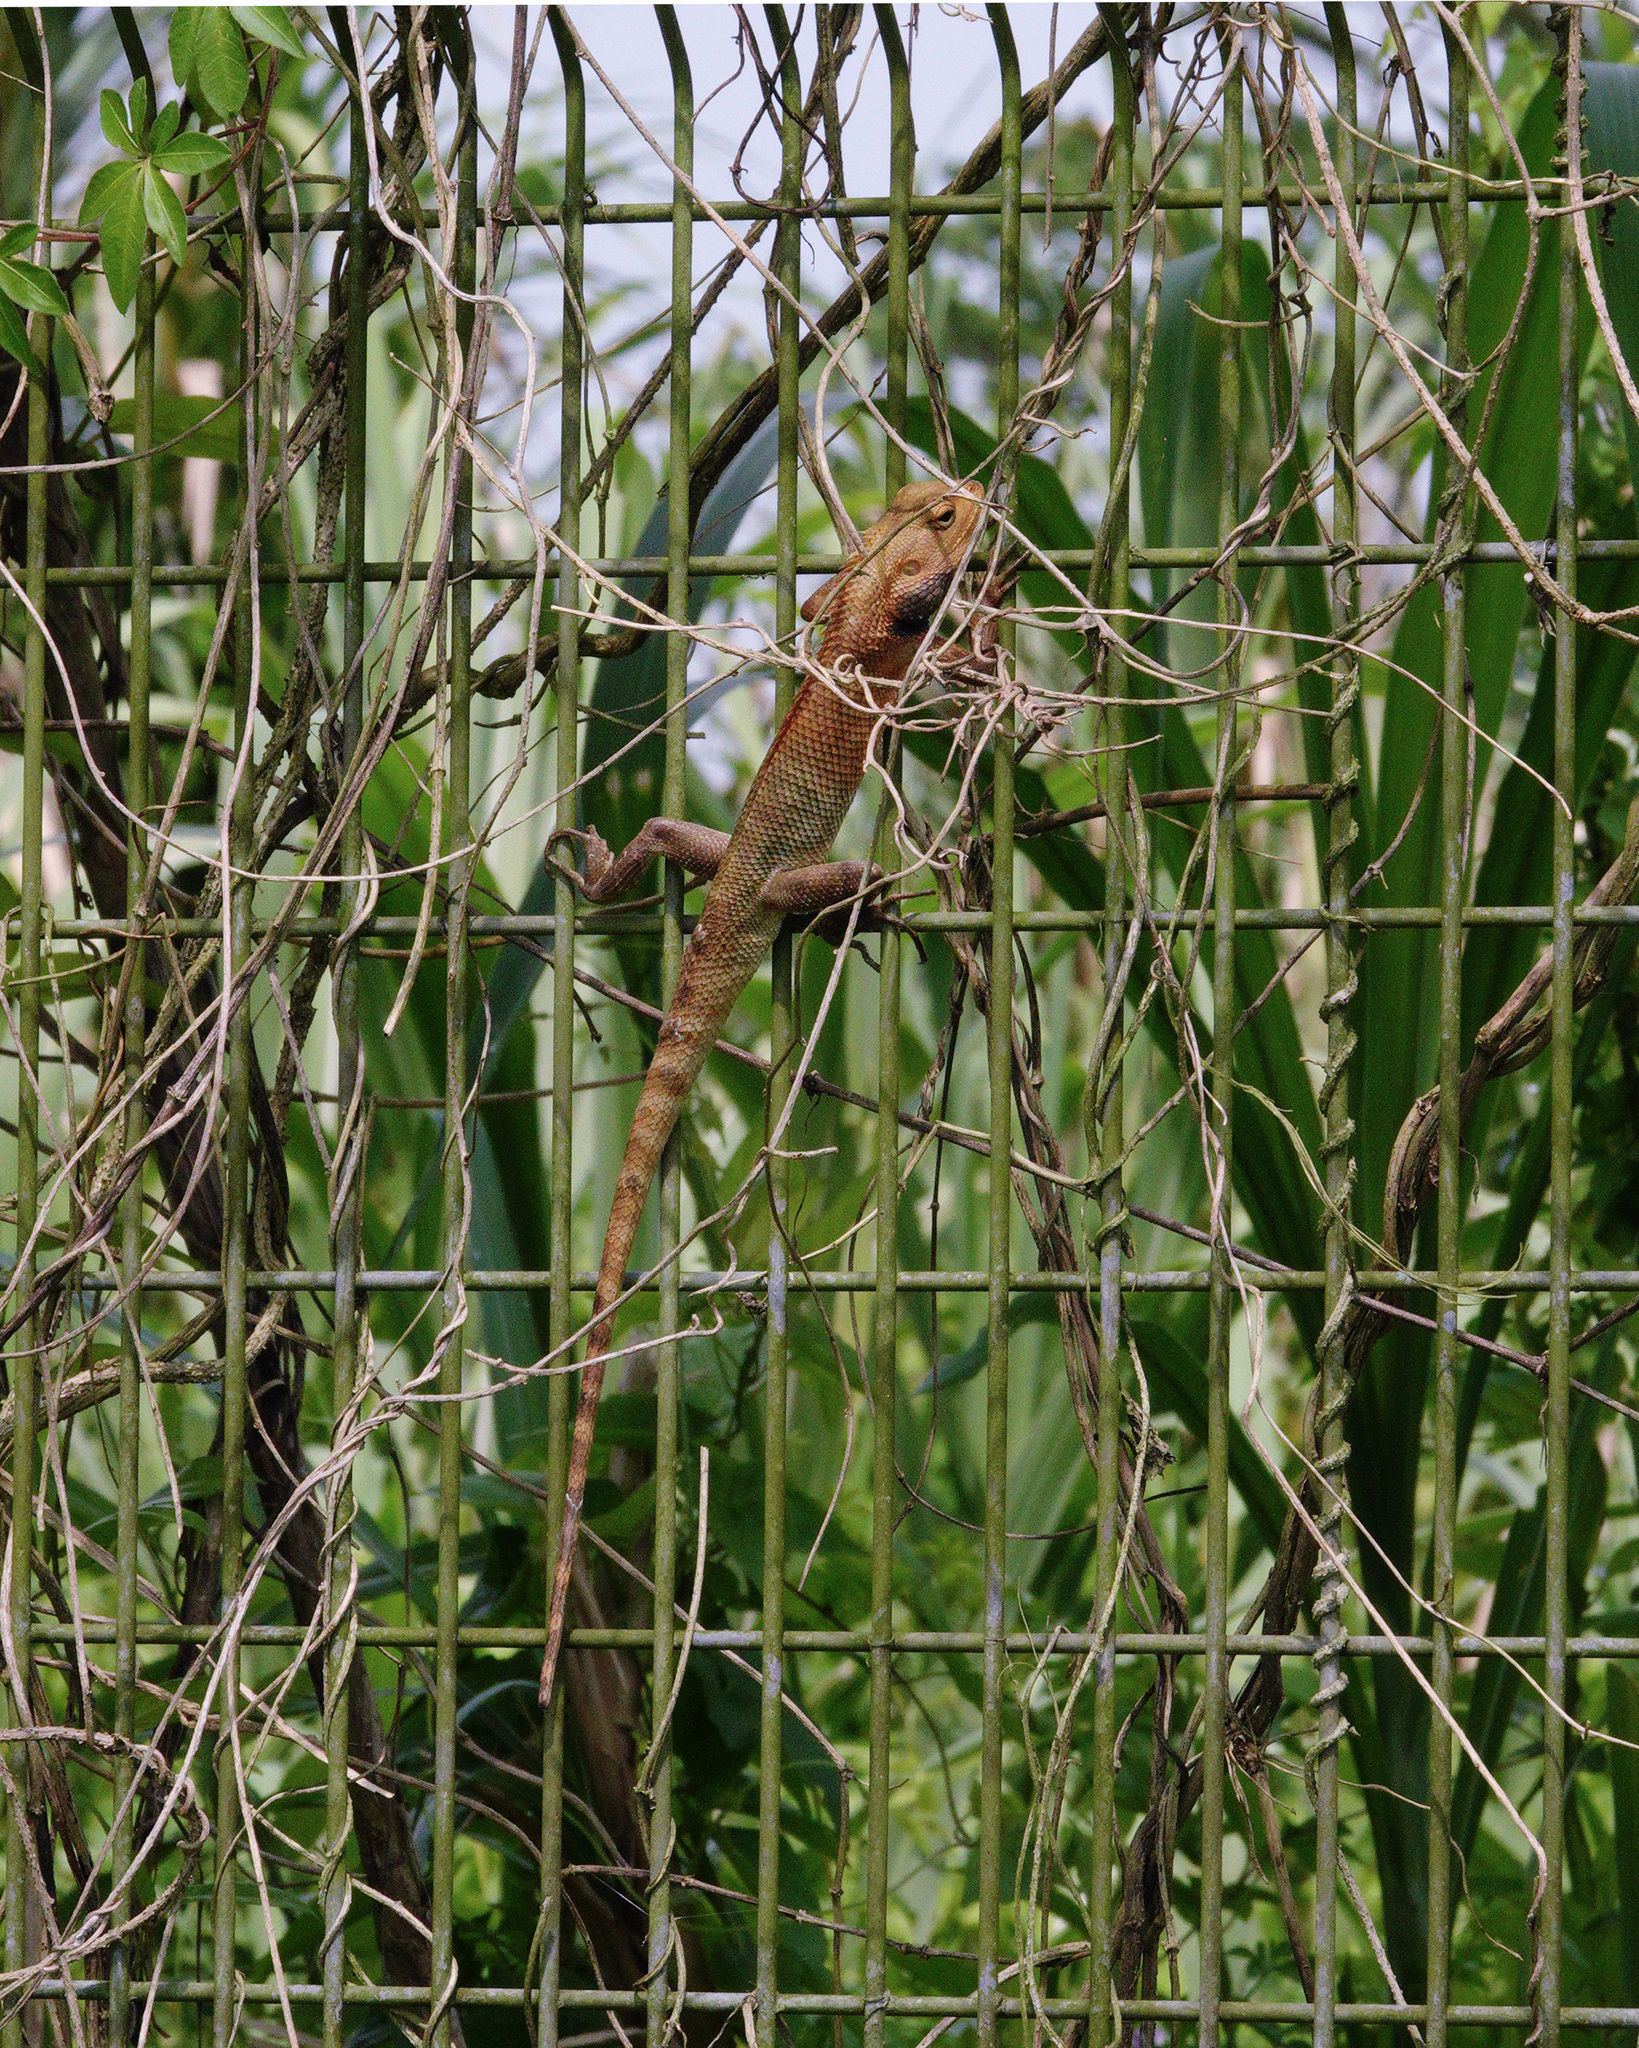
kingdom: Animalia
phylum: Chordata
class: Squamata
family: Agamidae
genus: Calotes
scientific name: Calotes versicolor
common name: Oriental garden lizard
